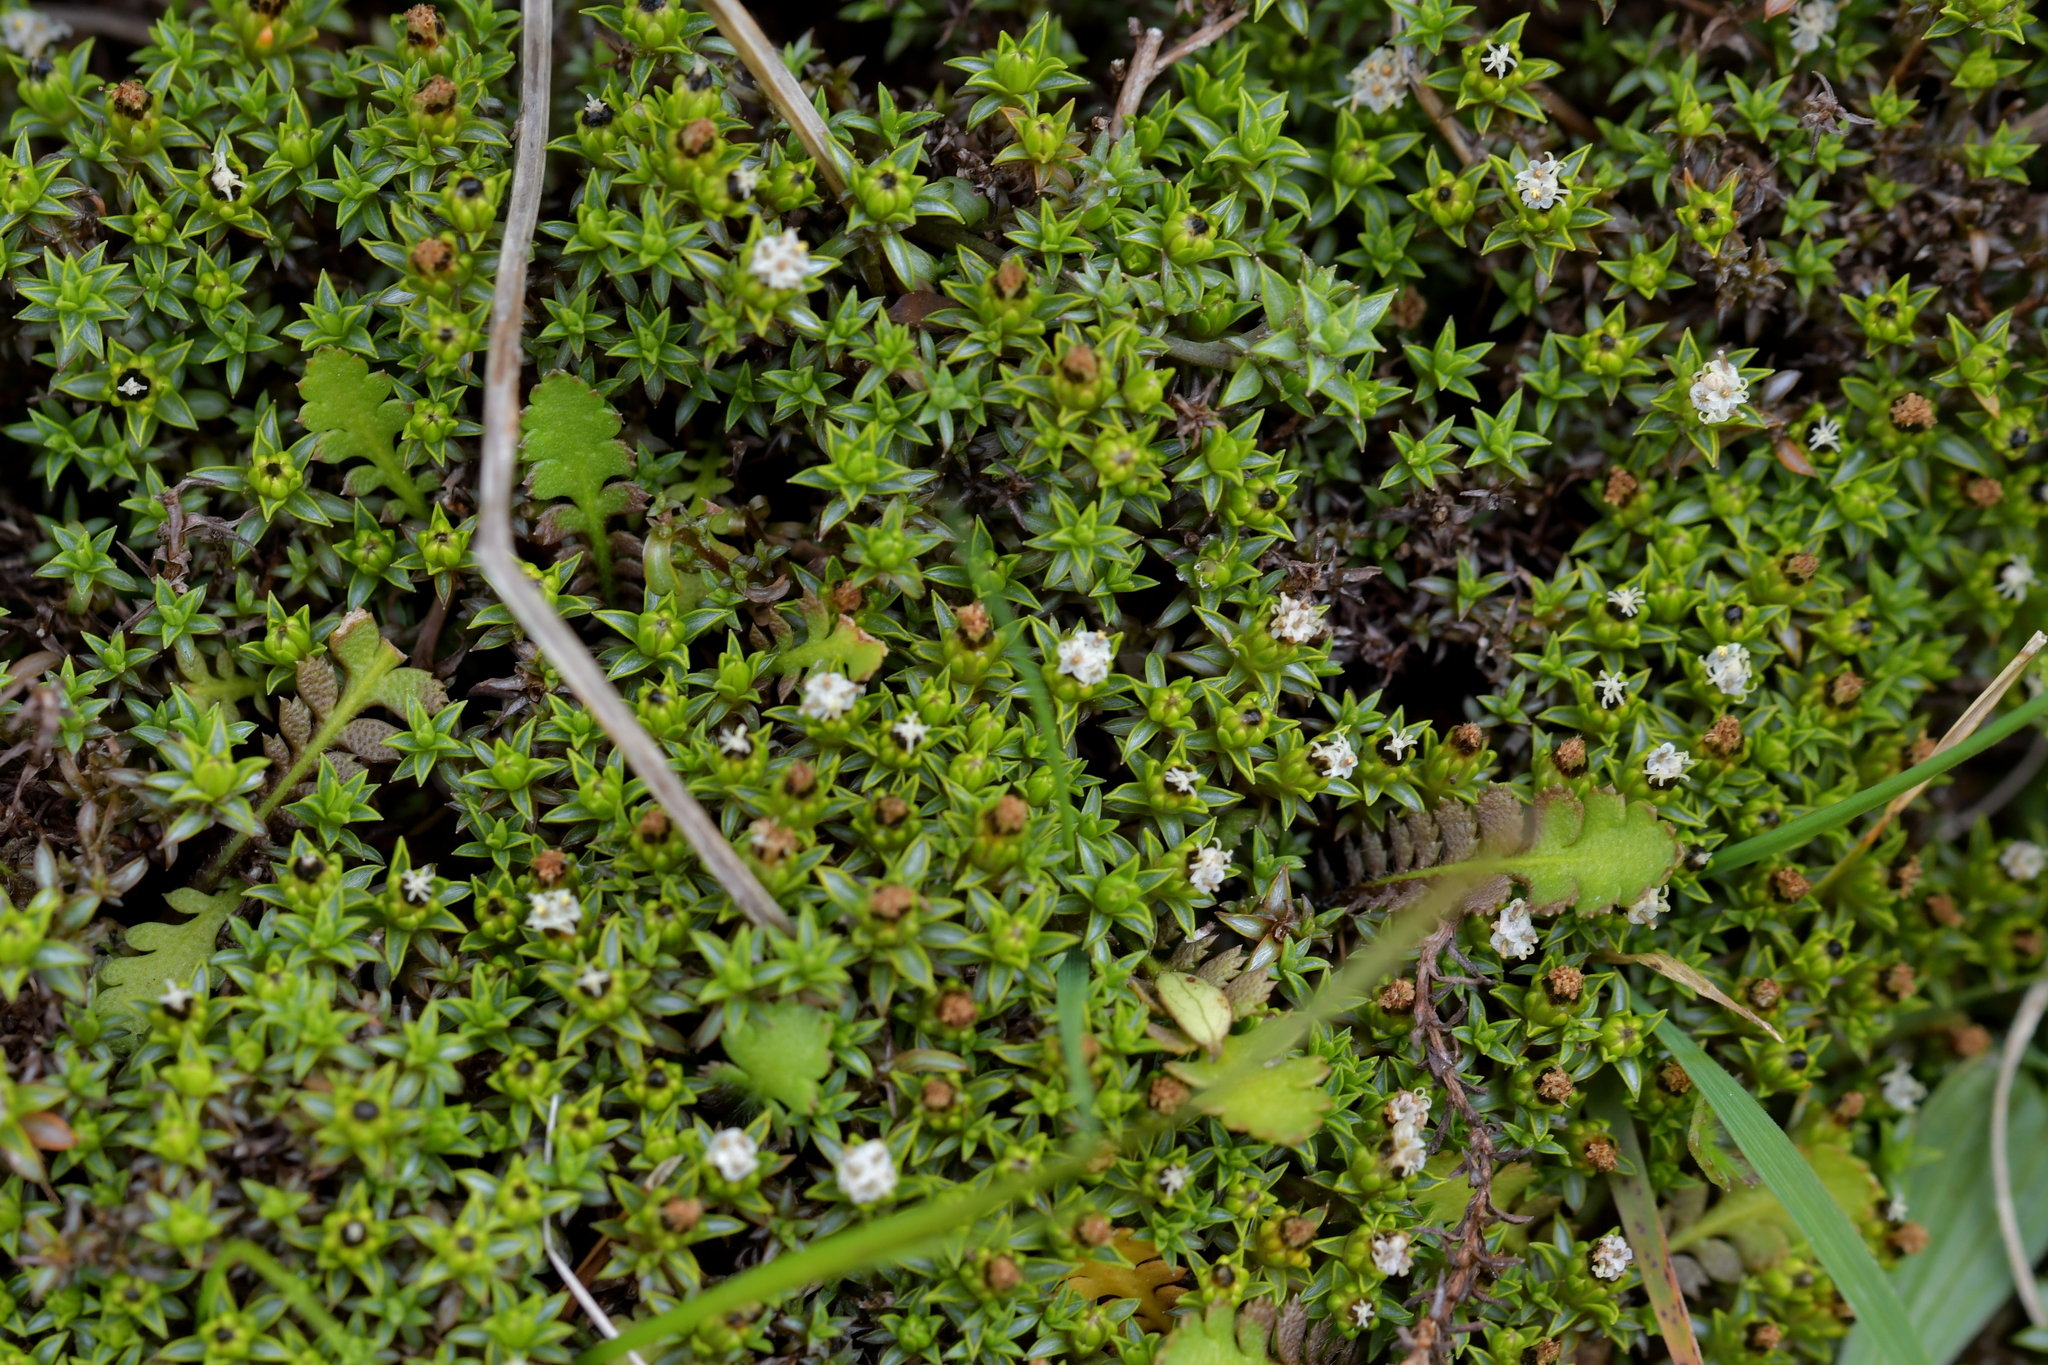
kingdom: Plantae
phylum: Tracheophyta
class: Magnoliopsida
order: Asterales
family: Asteraceae
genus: Raoulia
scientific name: Raoulia tenuicaulis
